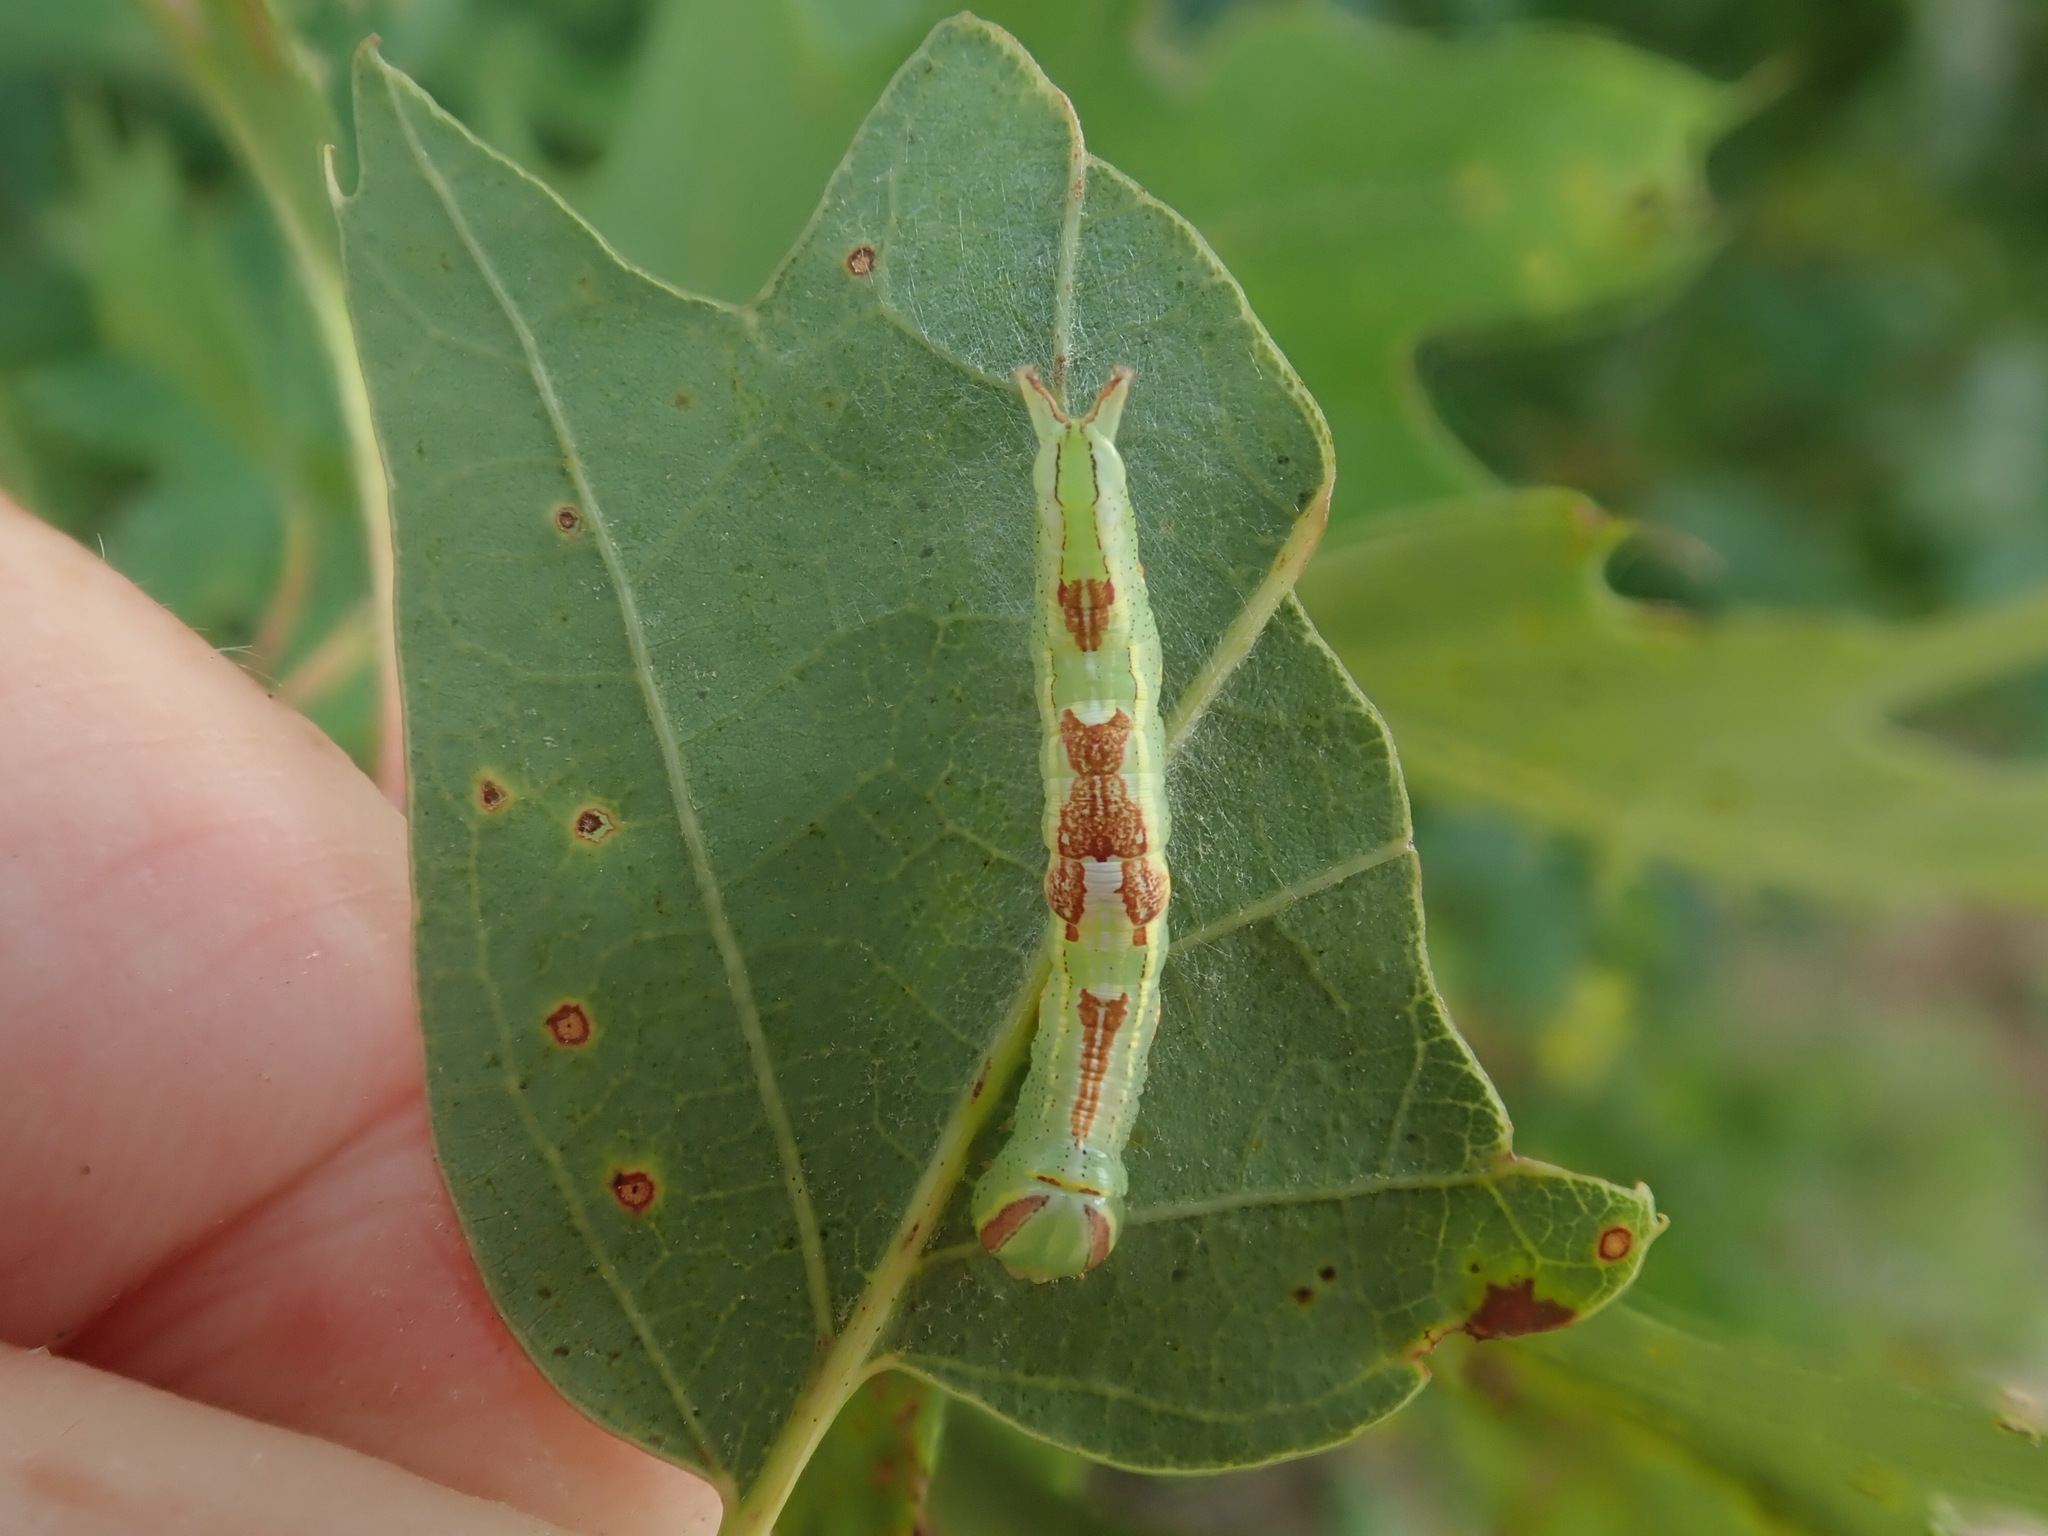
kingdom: Animalia
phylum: Arthropoda
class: Insecta
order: Lepidoptera
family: Notodontidae
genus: Disphragis
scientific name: Disphragis Cecrita guttivitta
